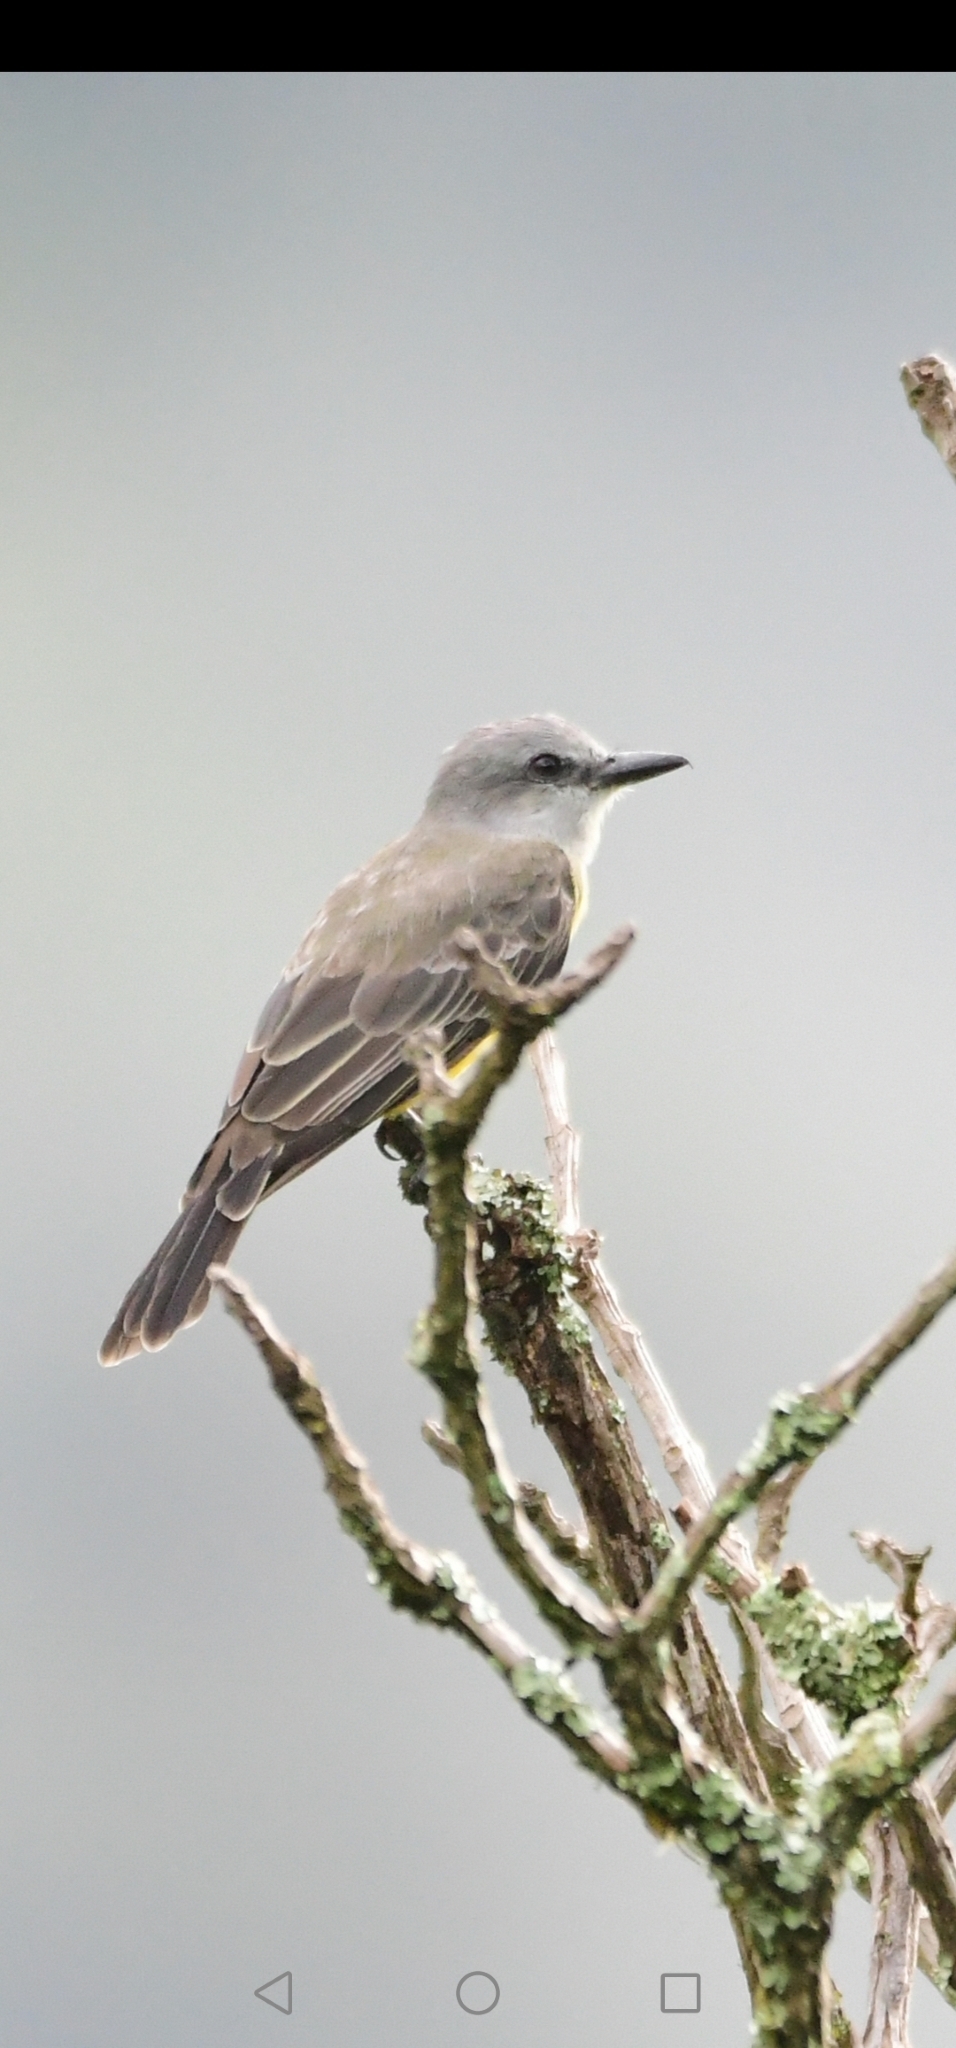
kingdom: Animalia
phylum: Chordata
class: Aves
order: Passeriformes
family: Tyrannidae
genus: Tyrannus
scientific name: Tyrannus melancholicus
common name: Tropical kingbird
